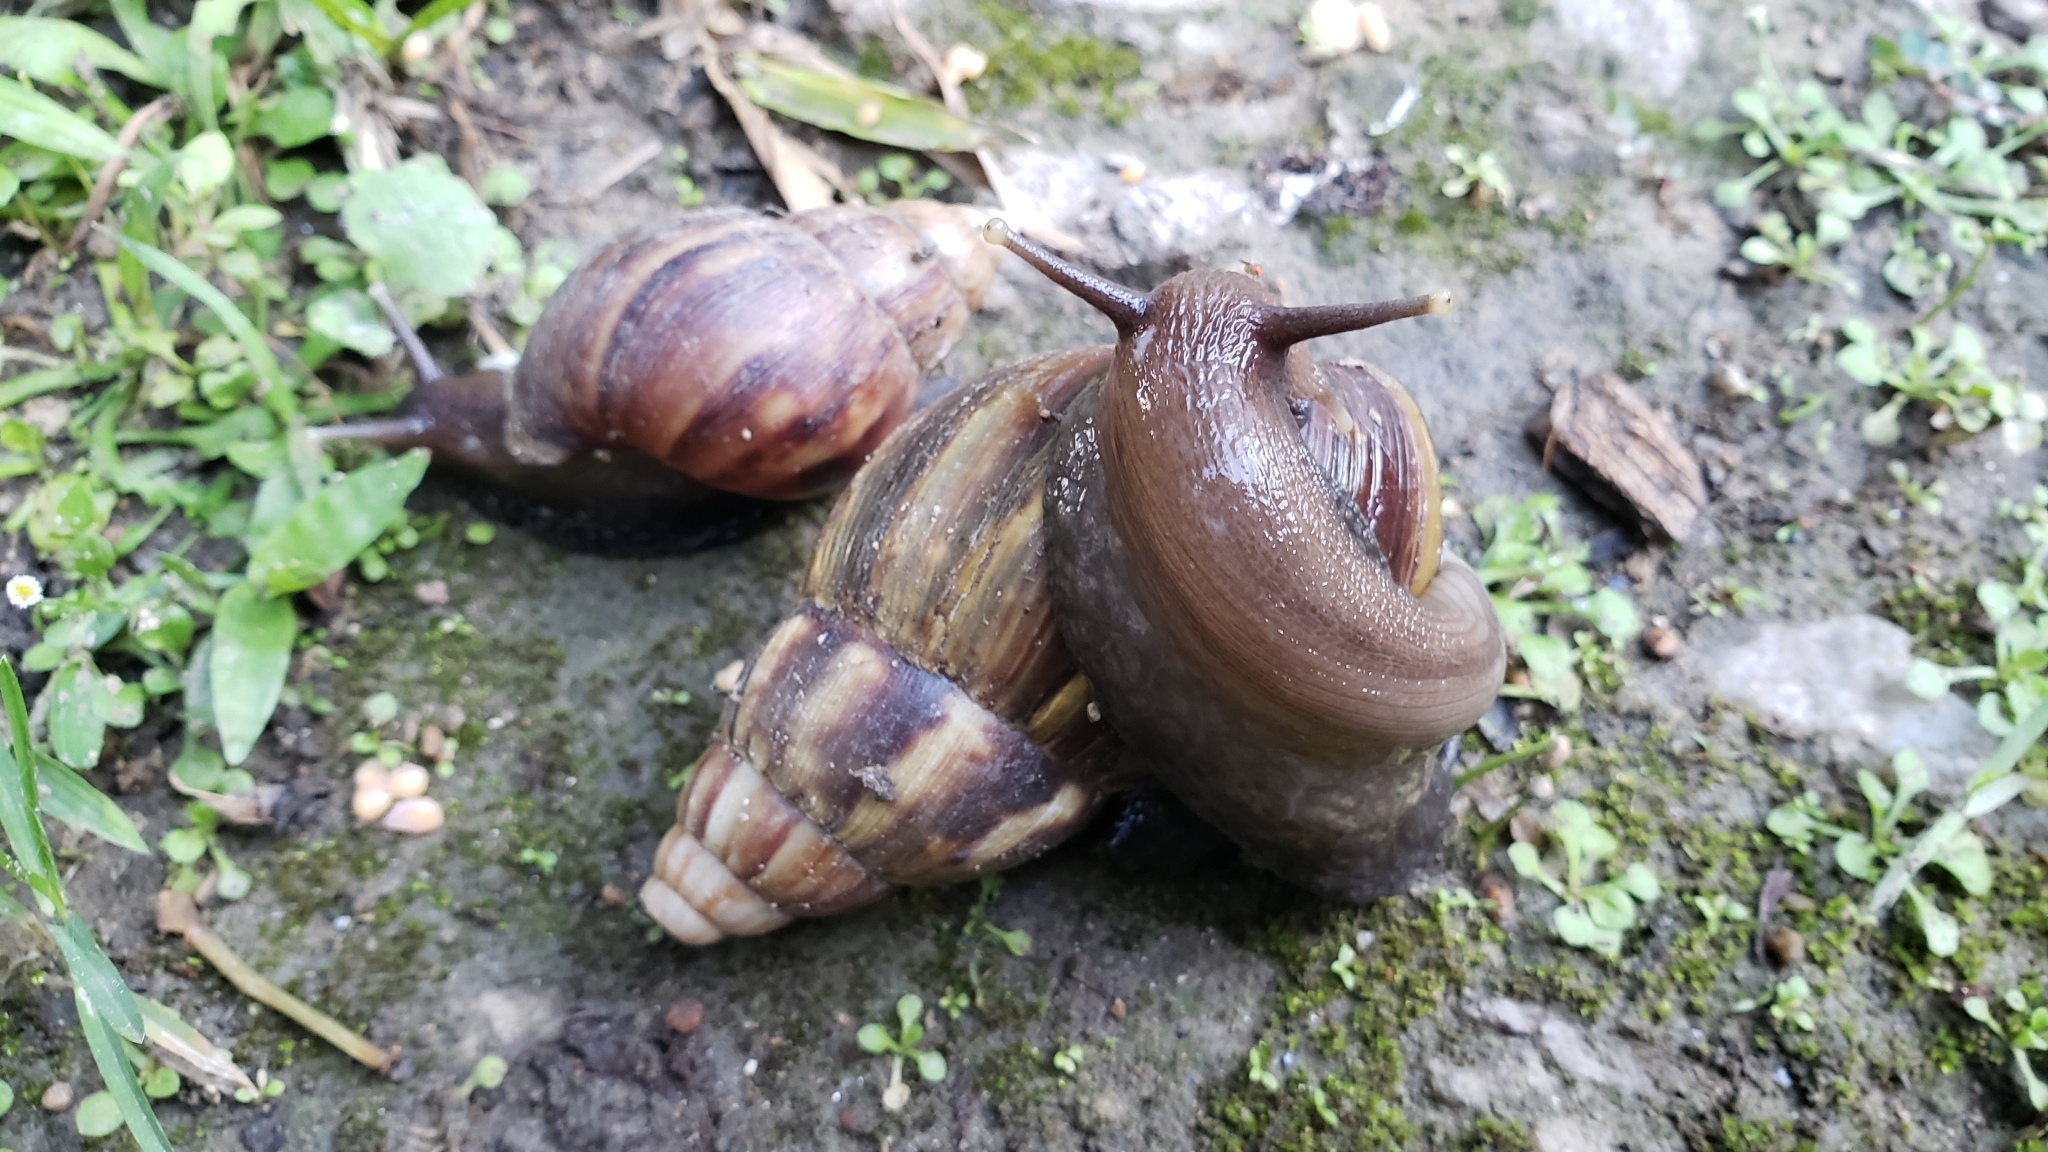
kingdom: Animalia
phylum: Mollusca
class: Gastropoda
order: Stylommatophora
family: Achatinidae
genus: Lissachatina
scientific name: Lissachatina fulica
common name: Giant african snail
